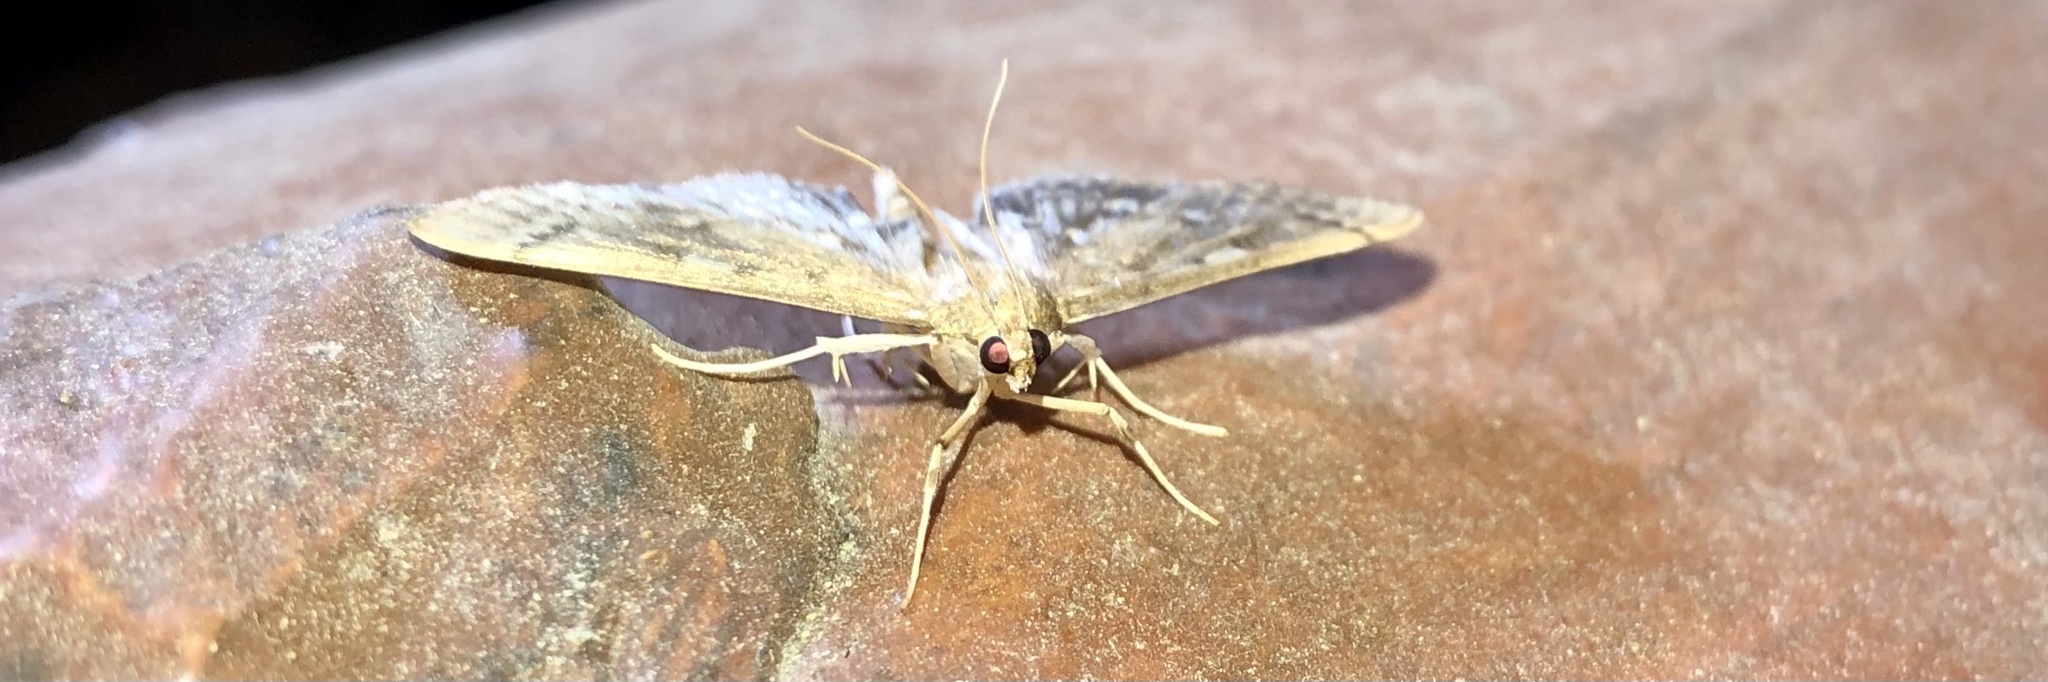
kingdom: Animalia
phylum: Arthropoda
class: Insecta
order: Lepidoptera
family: Crambidae
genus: Herpetogramma
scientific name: Herpetogramma aeglealis
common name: Serpentine webworm moth
